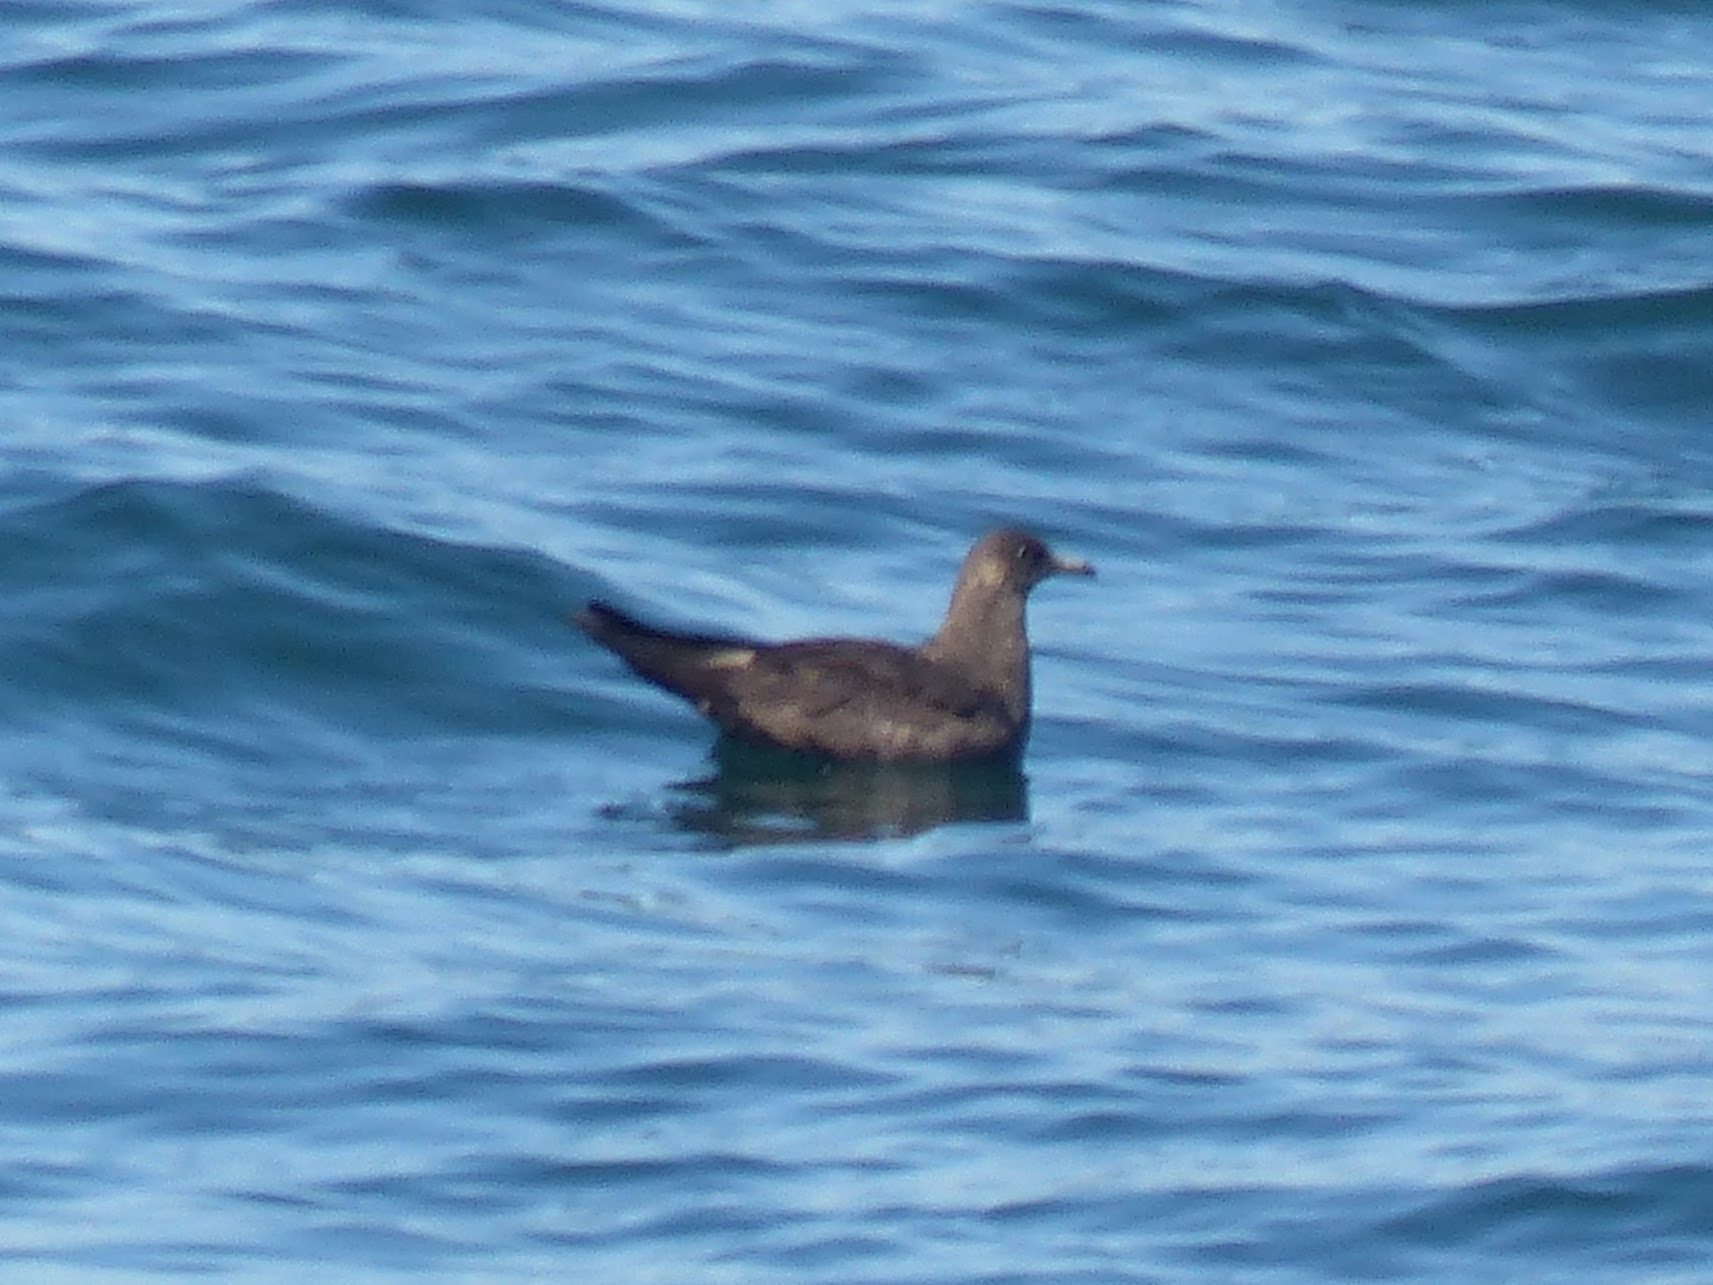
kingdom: Animalia
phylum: Chordata
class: Aves
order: Charadriiformes
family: Stercorariidae
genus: Stercorarius
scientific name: Stercorarius parasiticus
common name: Parasitic jaeger
